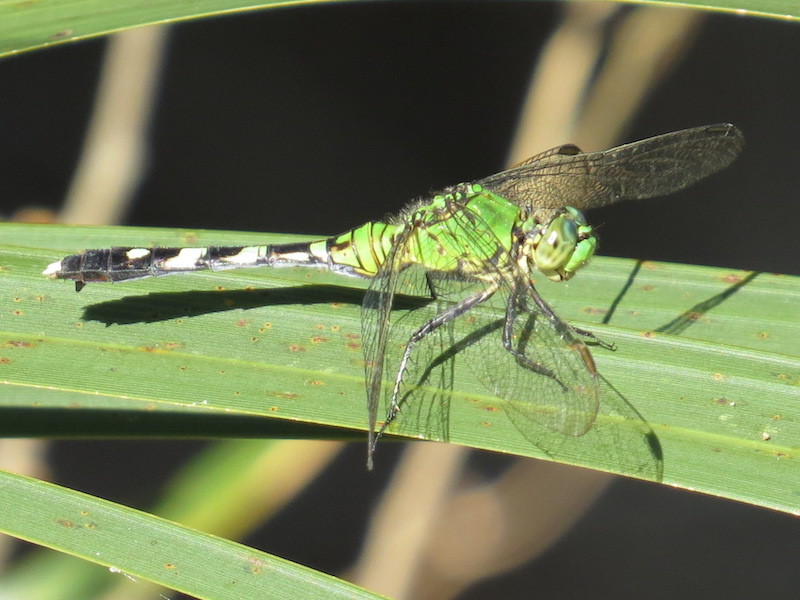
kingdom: Animalia
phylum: Arthropoda
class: Insecta
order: Odonata
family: Libellulidae
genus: Erythemis
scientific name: Erythemis simplicicollis
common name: Eastern pondhawk
